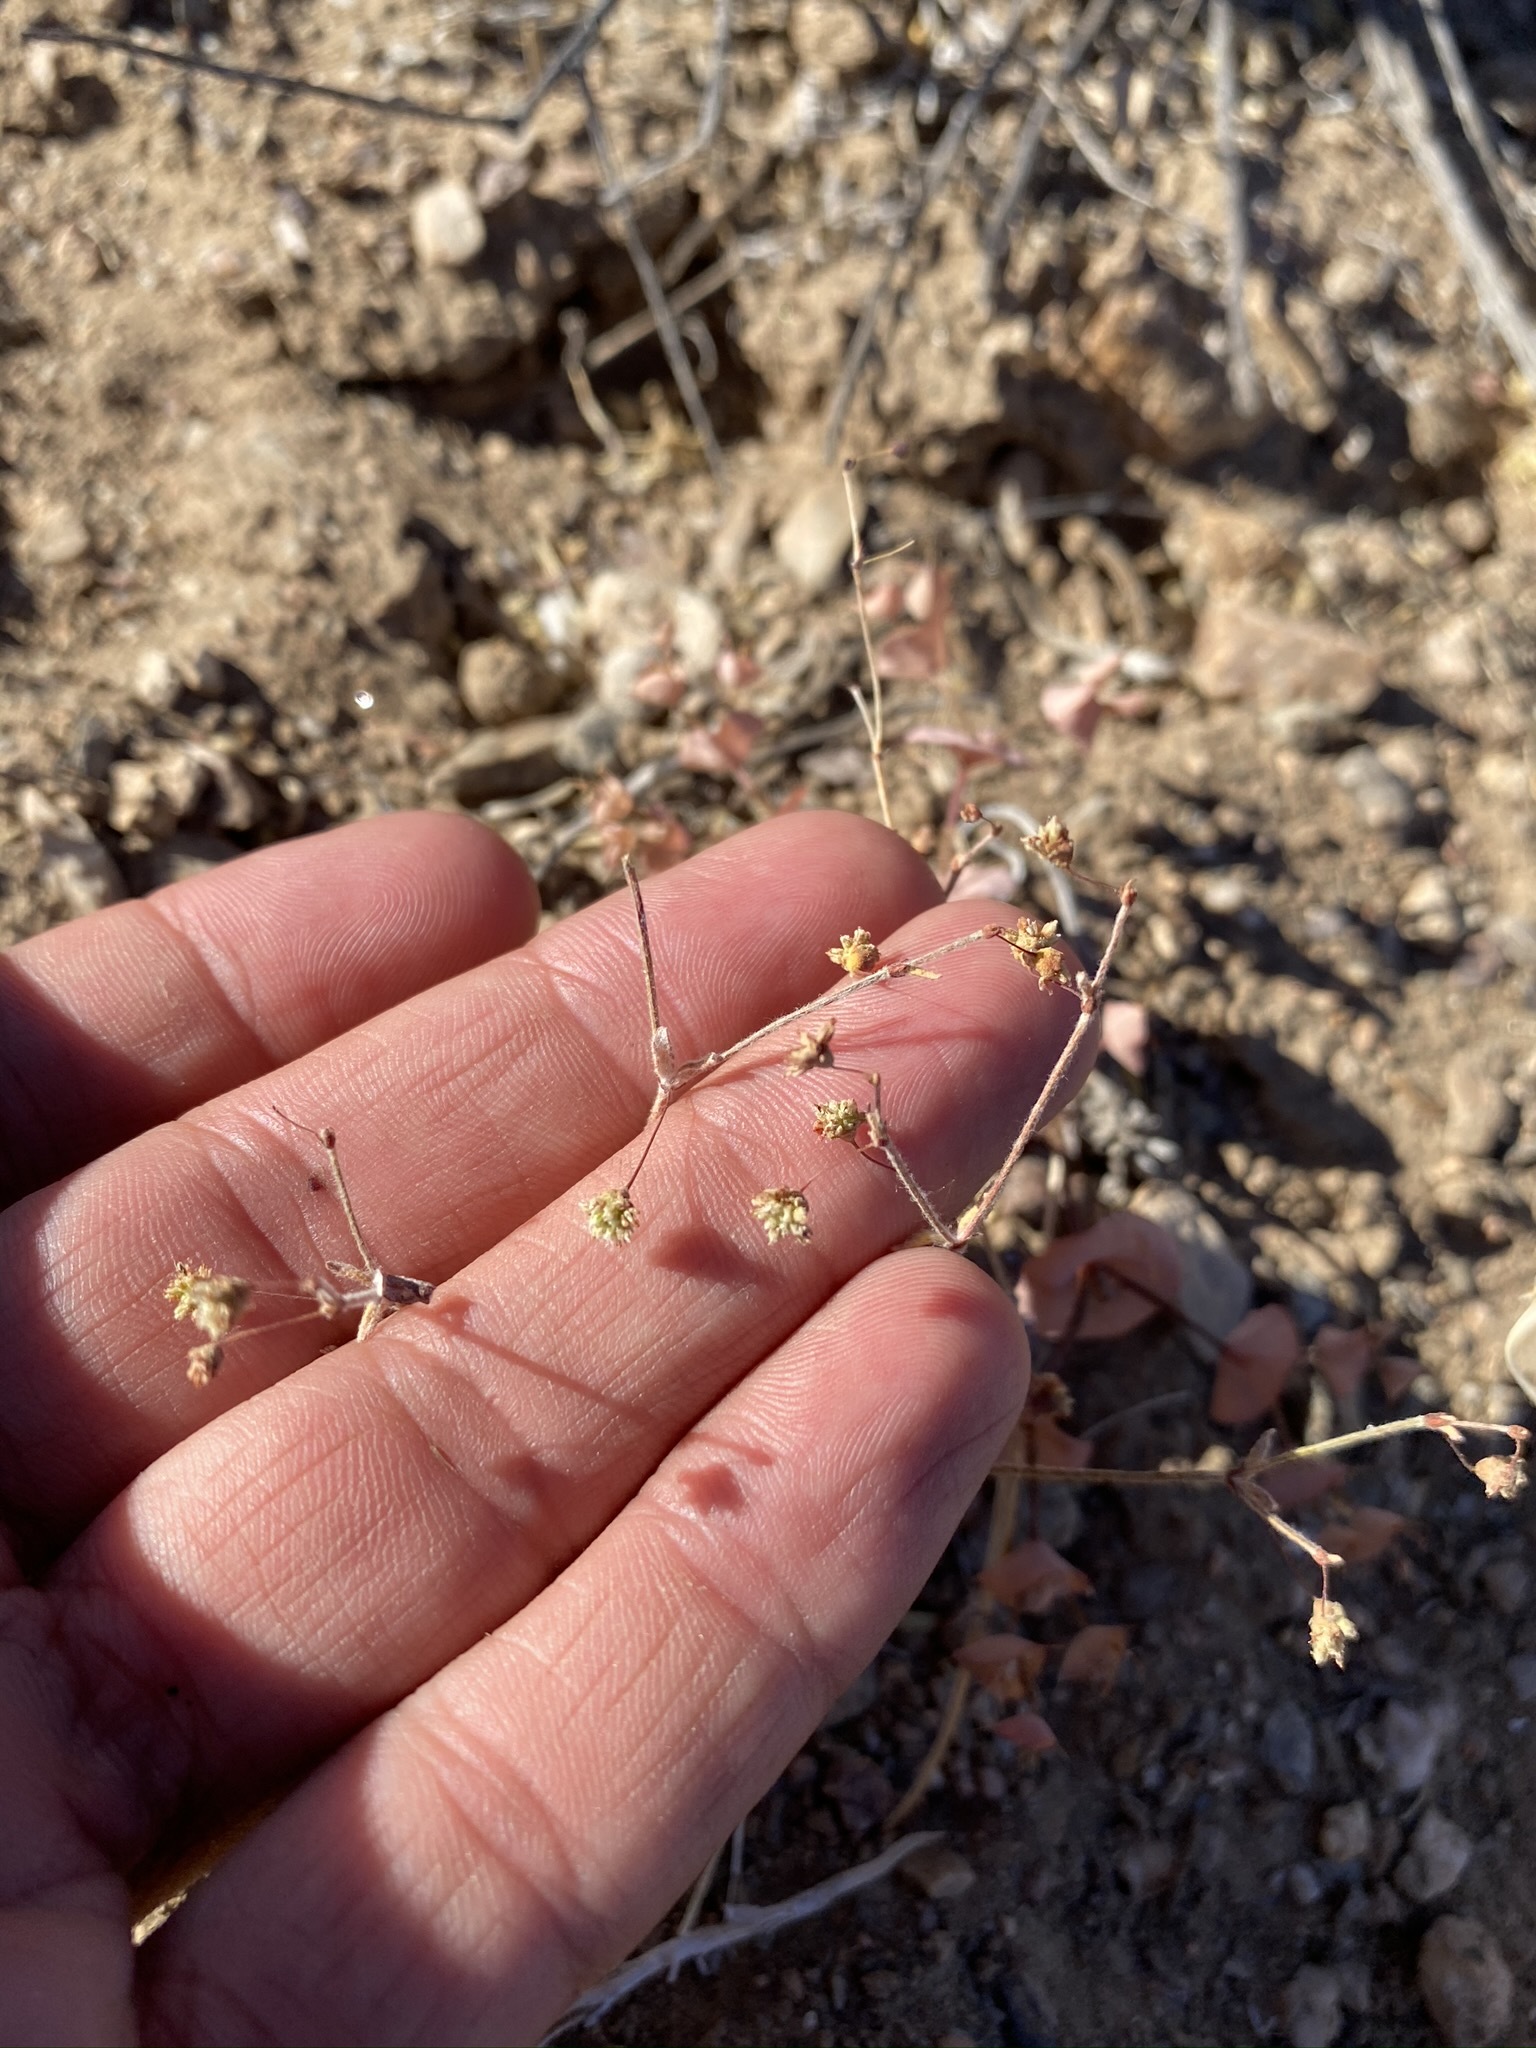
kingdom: Plantae
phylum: Tracheophyta
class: Magnoliopsida
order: Caryophyllales
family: Polygonaceae
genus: Eriogonum
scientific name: Eriogonum maculatum
